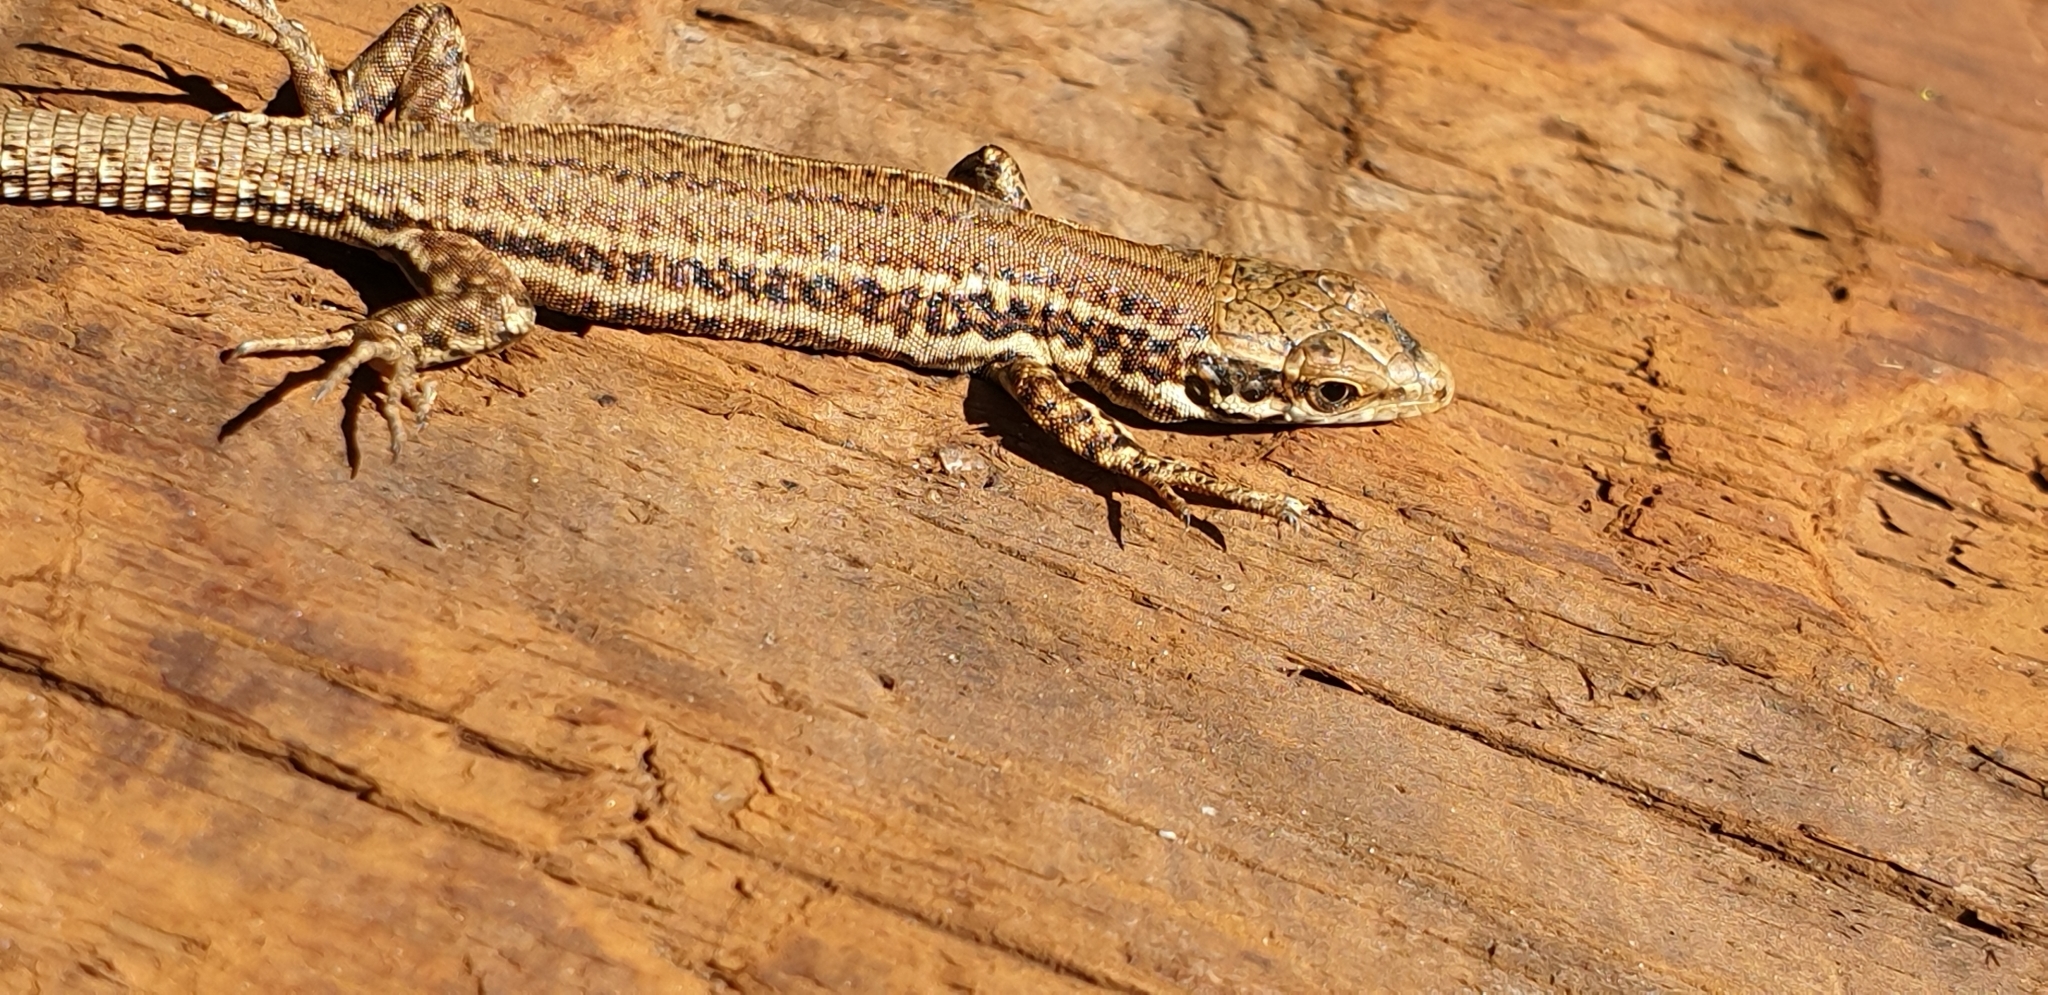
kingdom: Animalia
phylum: Chordata
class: Squamata
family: Lacertidae
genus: Podarcis
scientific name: Podarcis muralis
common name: Common wall lizard
